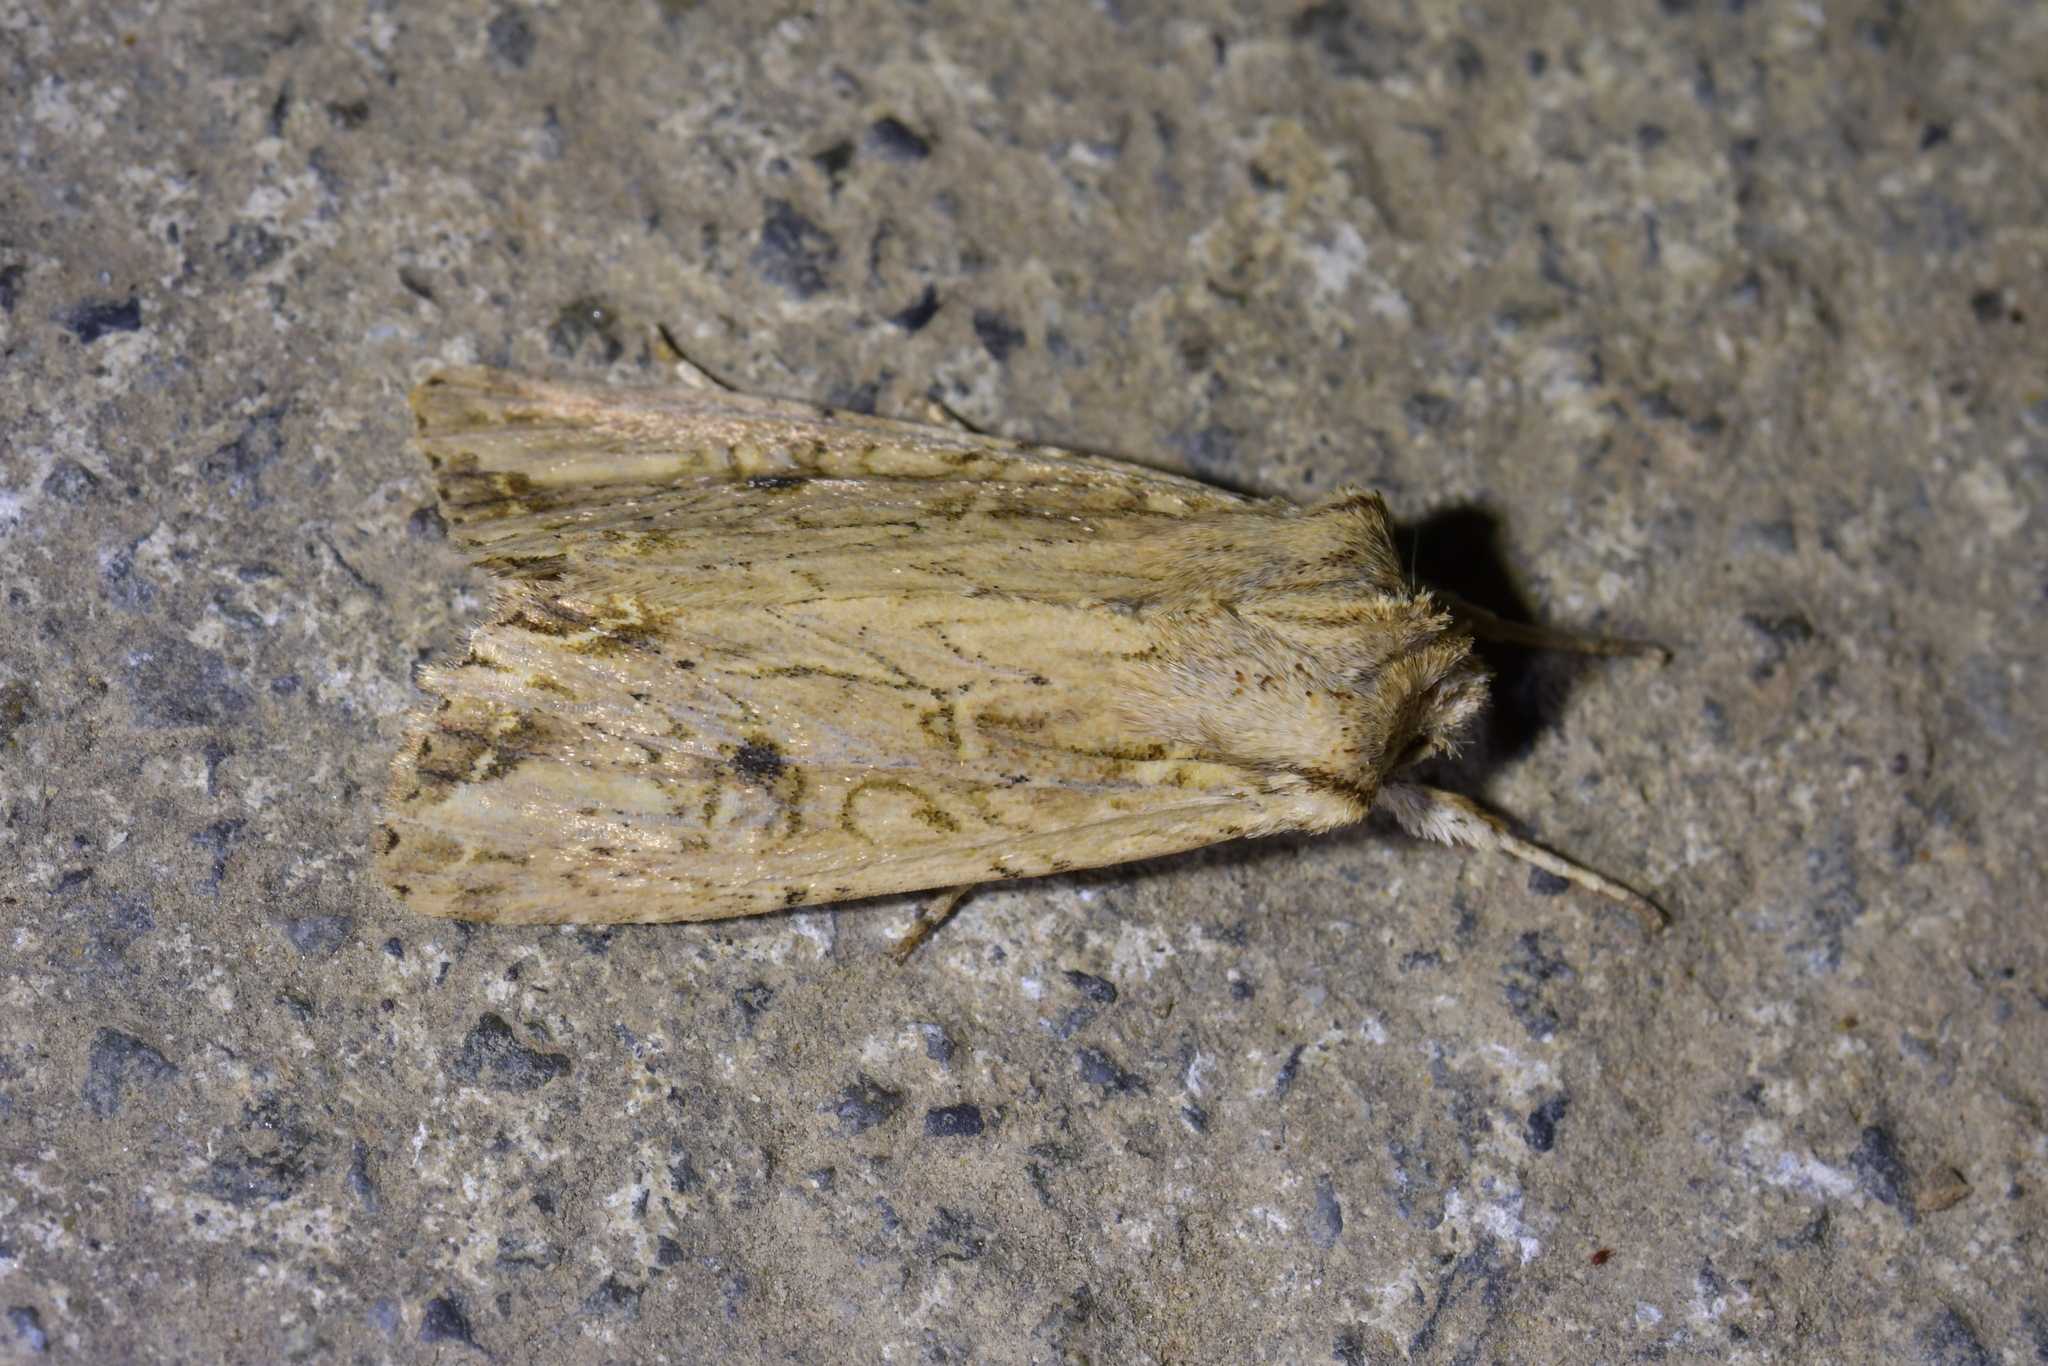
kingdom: Animalia
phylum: Arthropoda
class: Insecta
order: Lepidoptera
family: Noctuidae
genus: Ichneutica
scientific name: Ichneutica lignana
